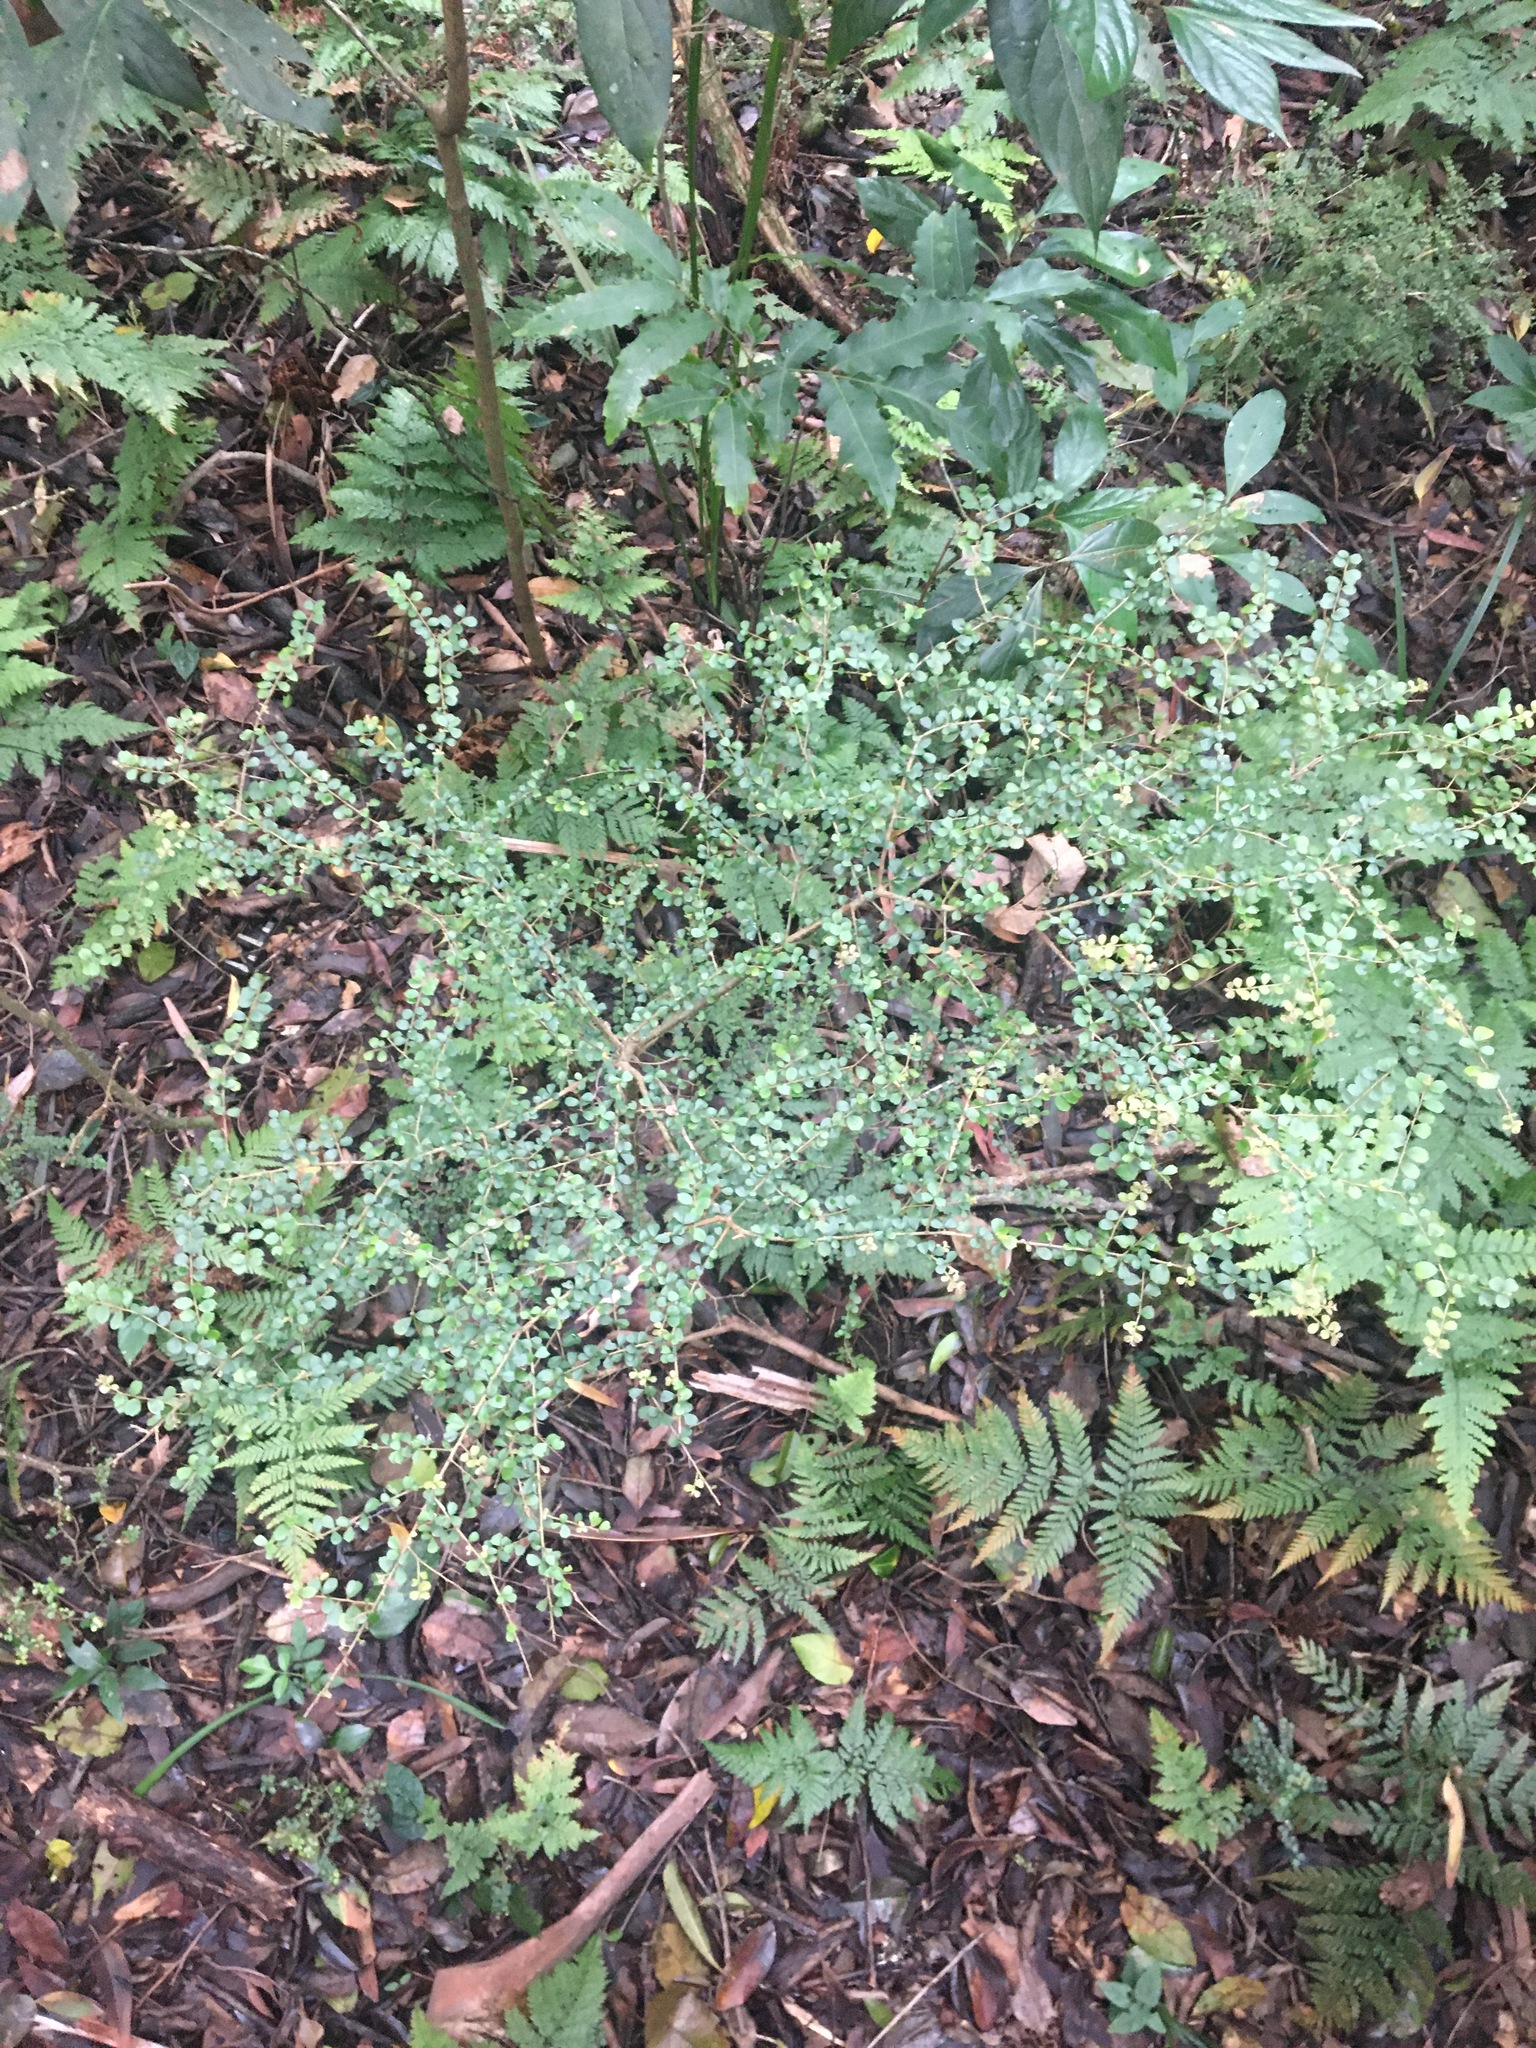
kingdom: Plantae
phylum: Tracheophyta
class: Magnoliopsida
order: Apiales
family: Pittosporaceae
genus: Pittosporum
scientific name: Pittosporum multiflorum
